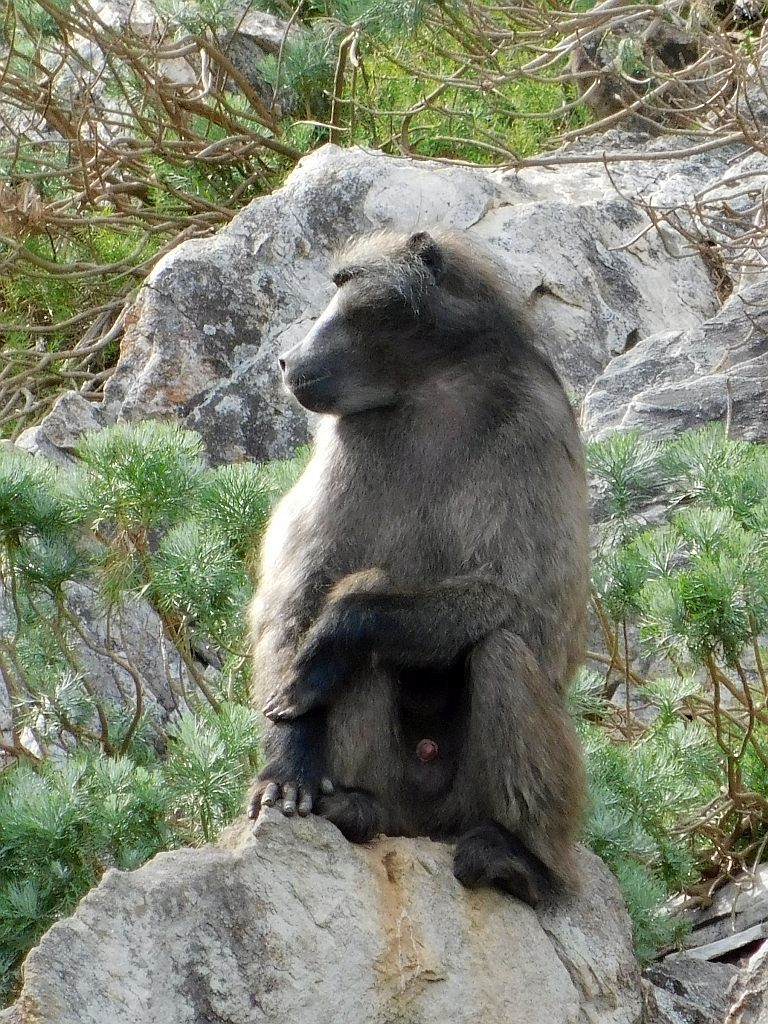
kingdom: Animalia
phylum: Chordata
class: Mammalia
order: Primates
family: Cercopithecidae
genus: Papio
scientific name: Papio ursinus
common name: Chacma baboon
